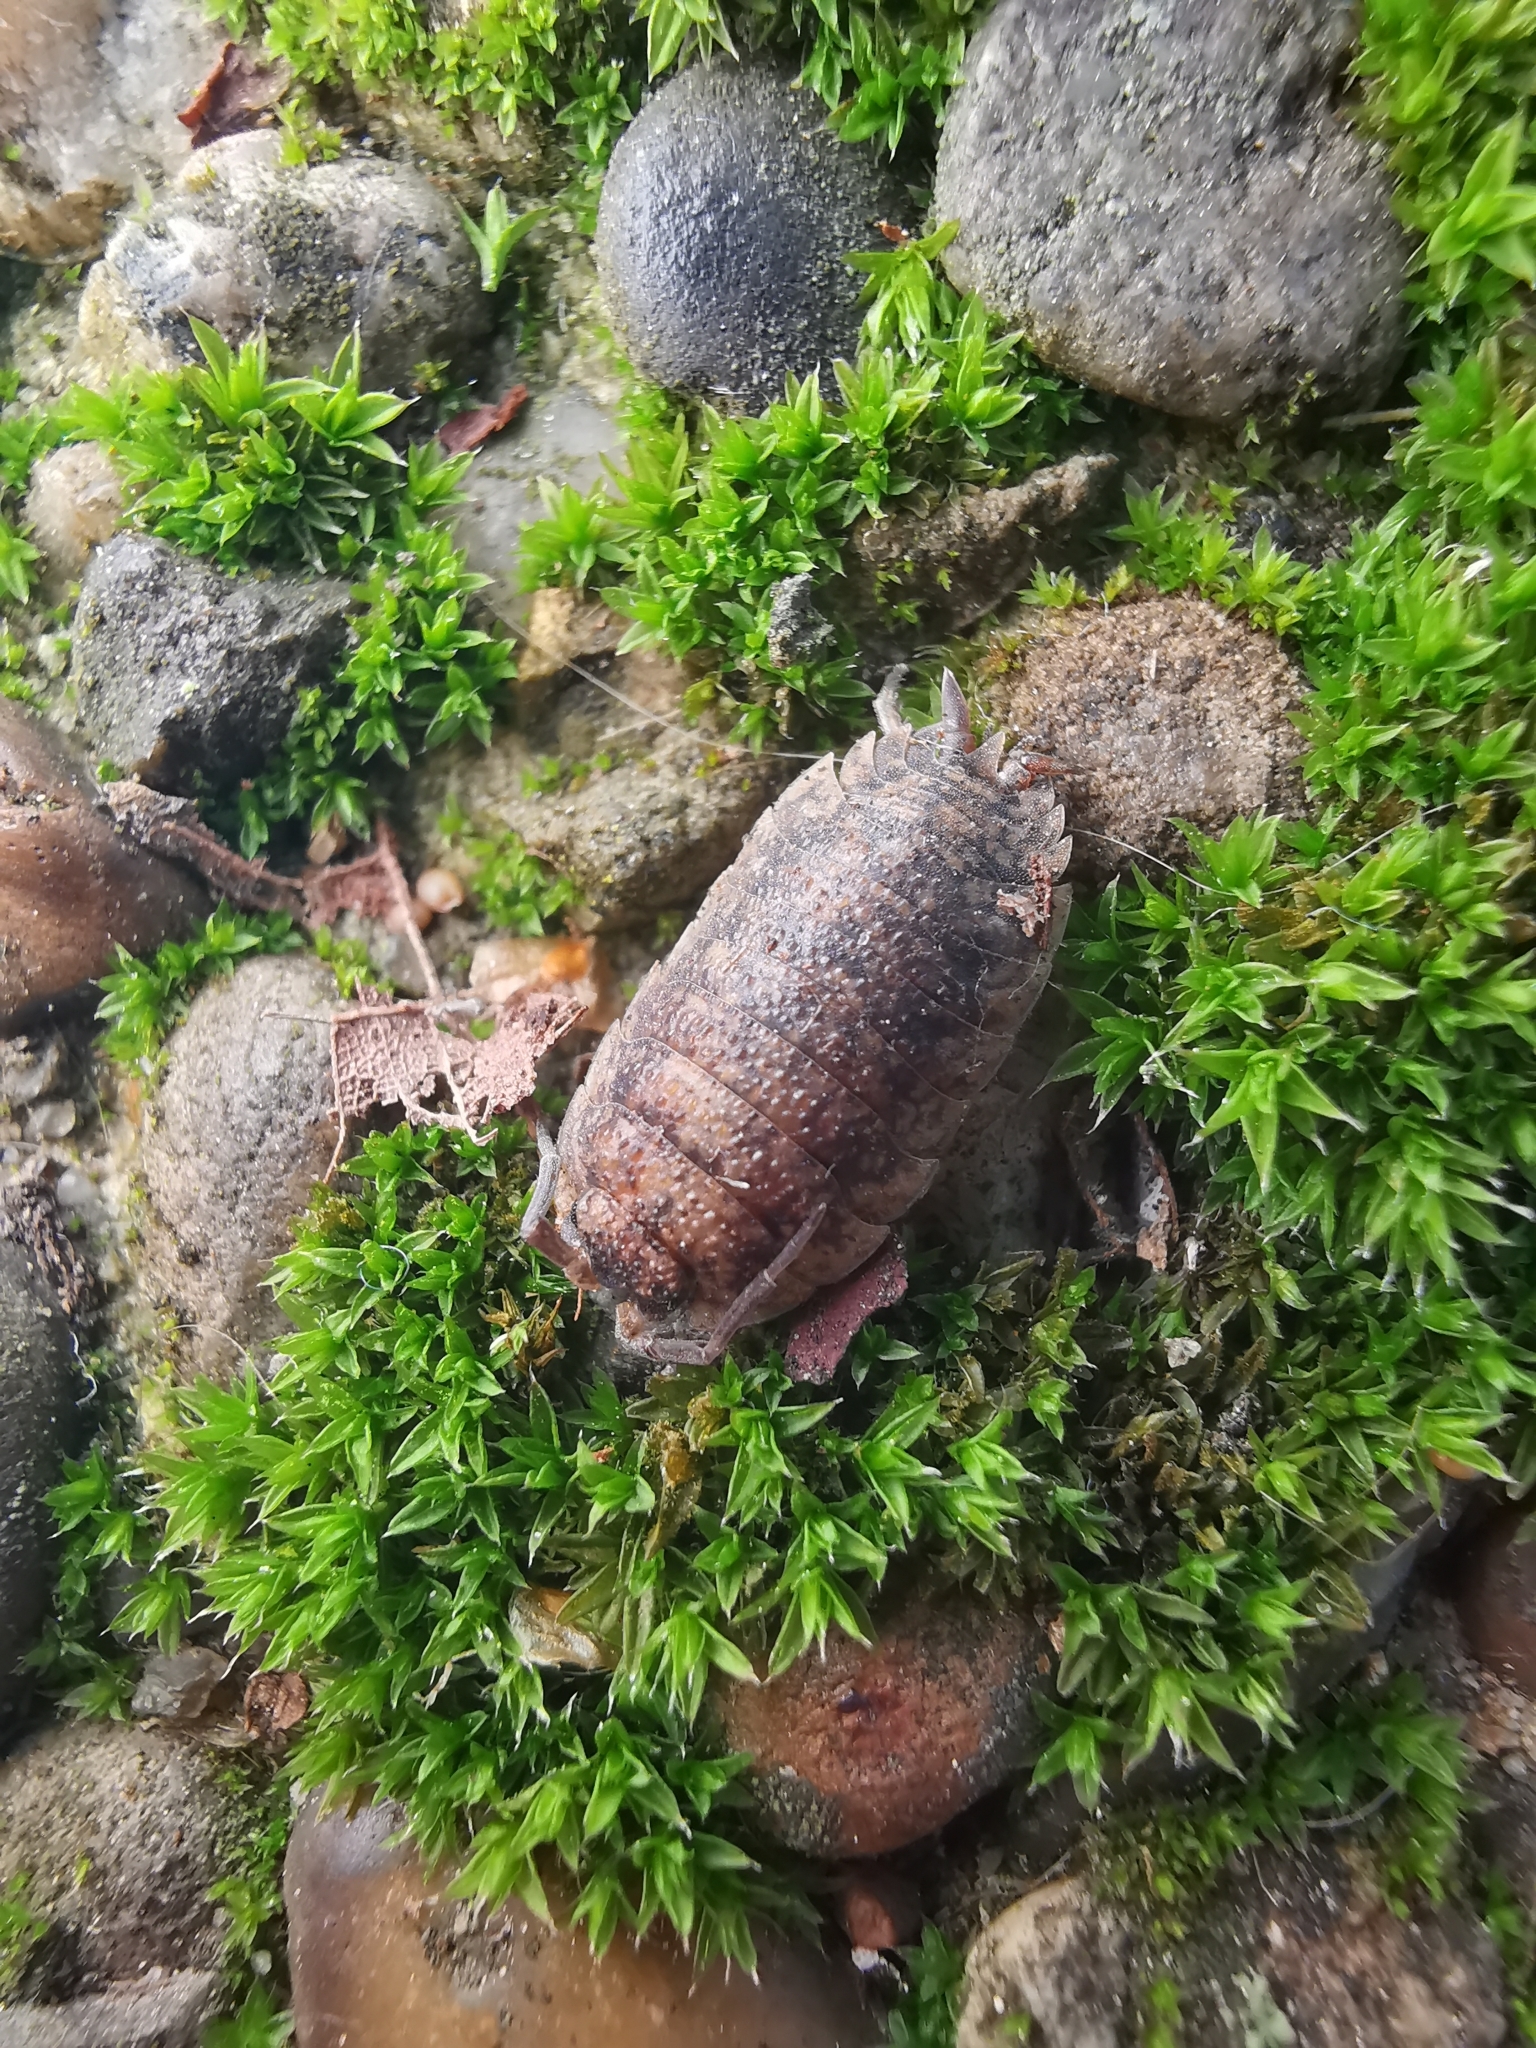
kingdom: Animalia
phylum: Arthropoda
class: Malacostraca
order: Isopoda
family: Porcellionidae
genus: Porcellio
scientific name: Porcellio scaber
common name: Common rough woodlouse
